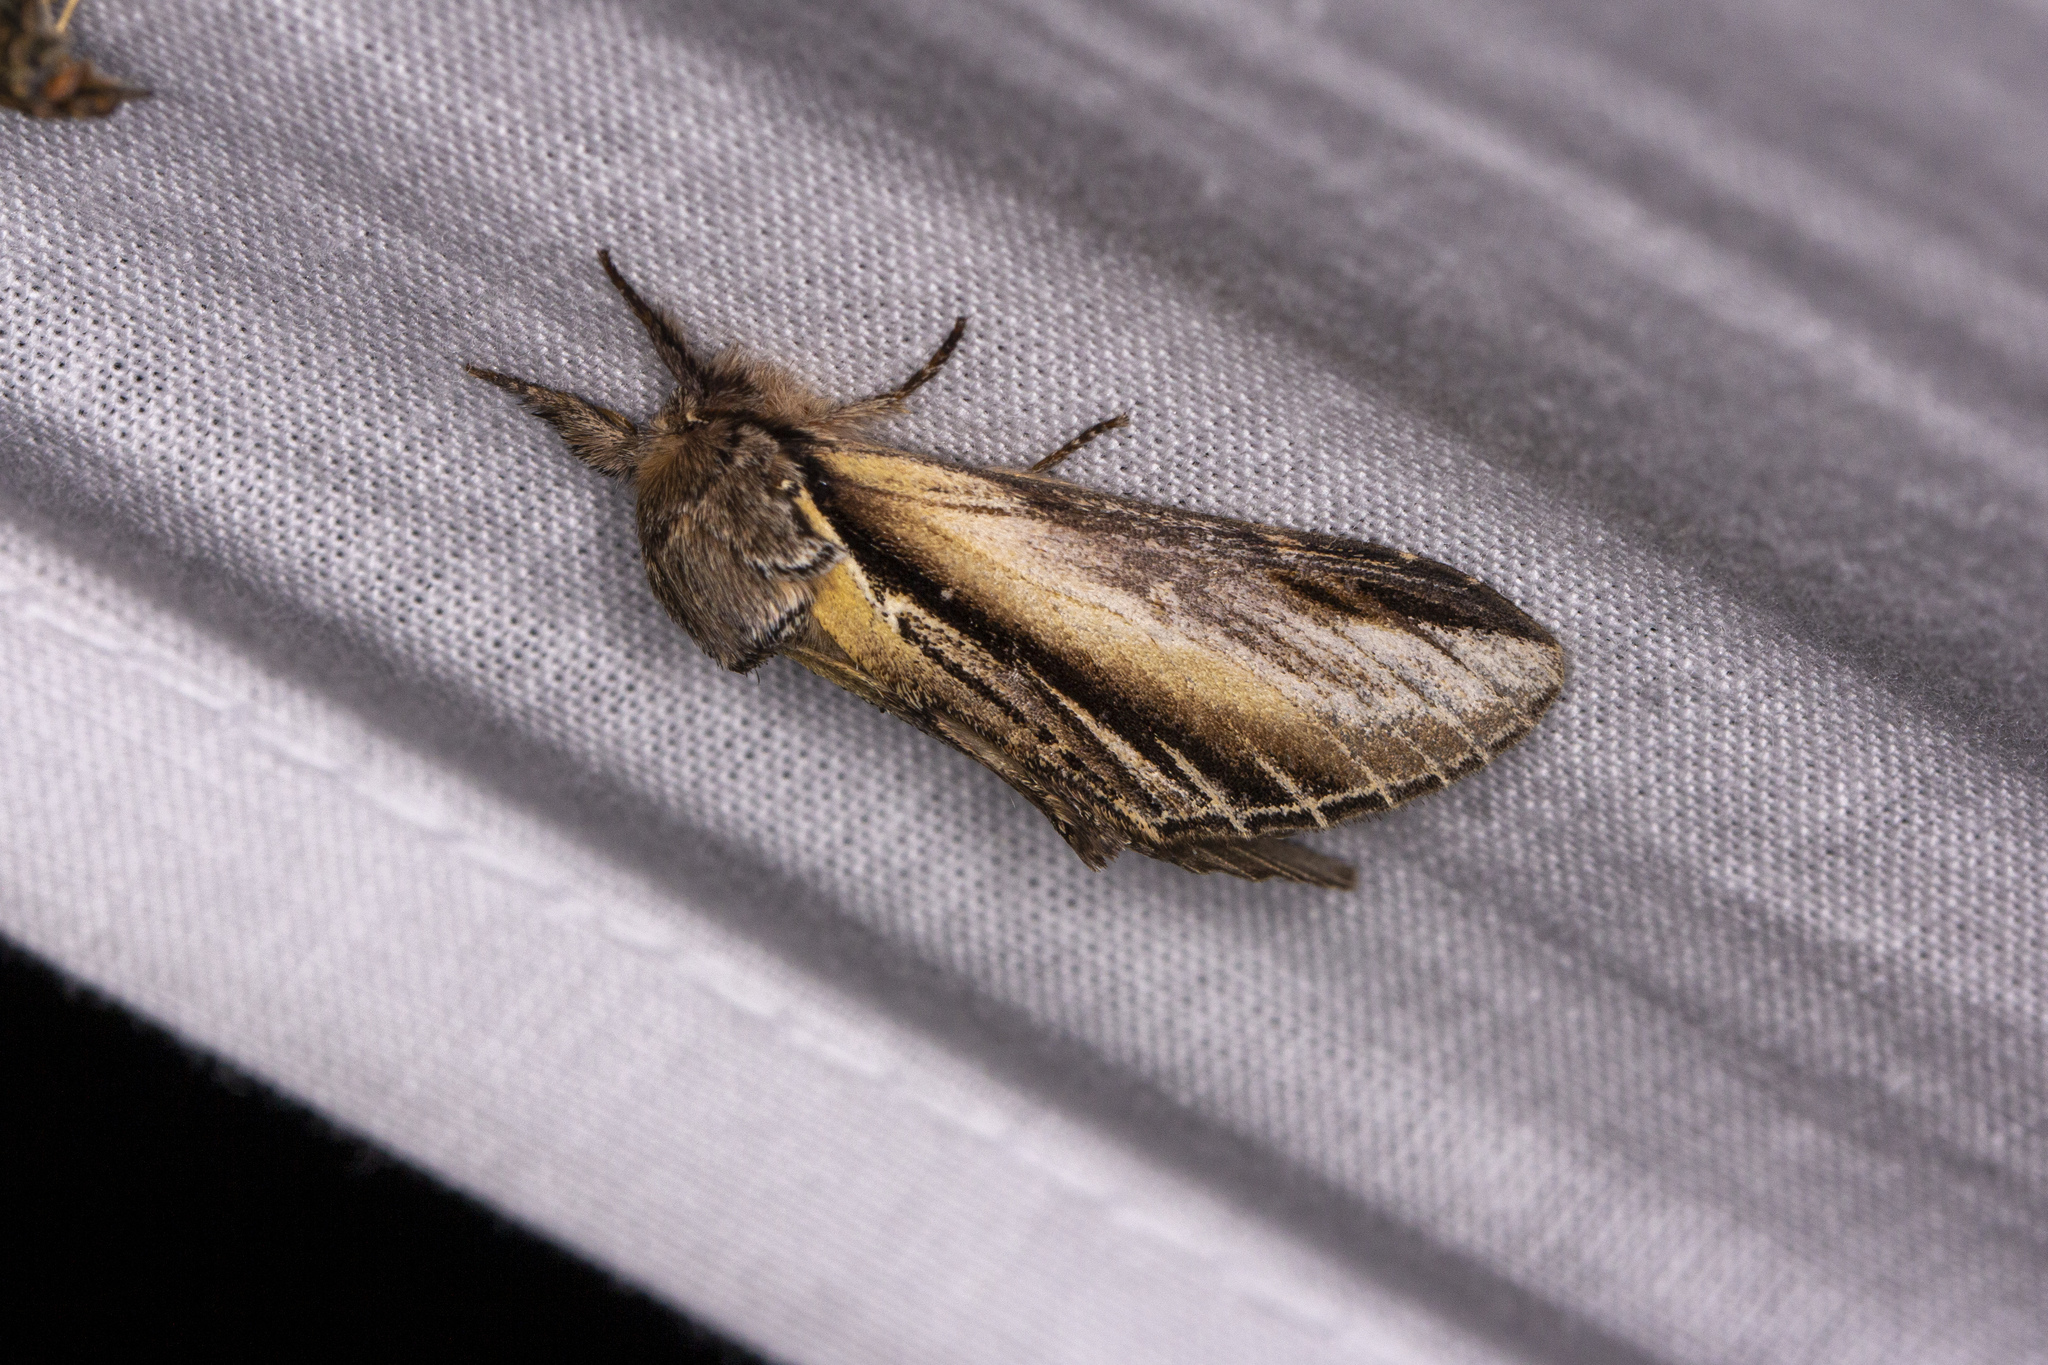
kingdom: Animalia
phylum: Arthropoda
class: Insecta
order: Lepidoptera
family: Notodontidae
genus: Pheosia
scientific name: Pheosia tremula
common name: Swallow prominent
